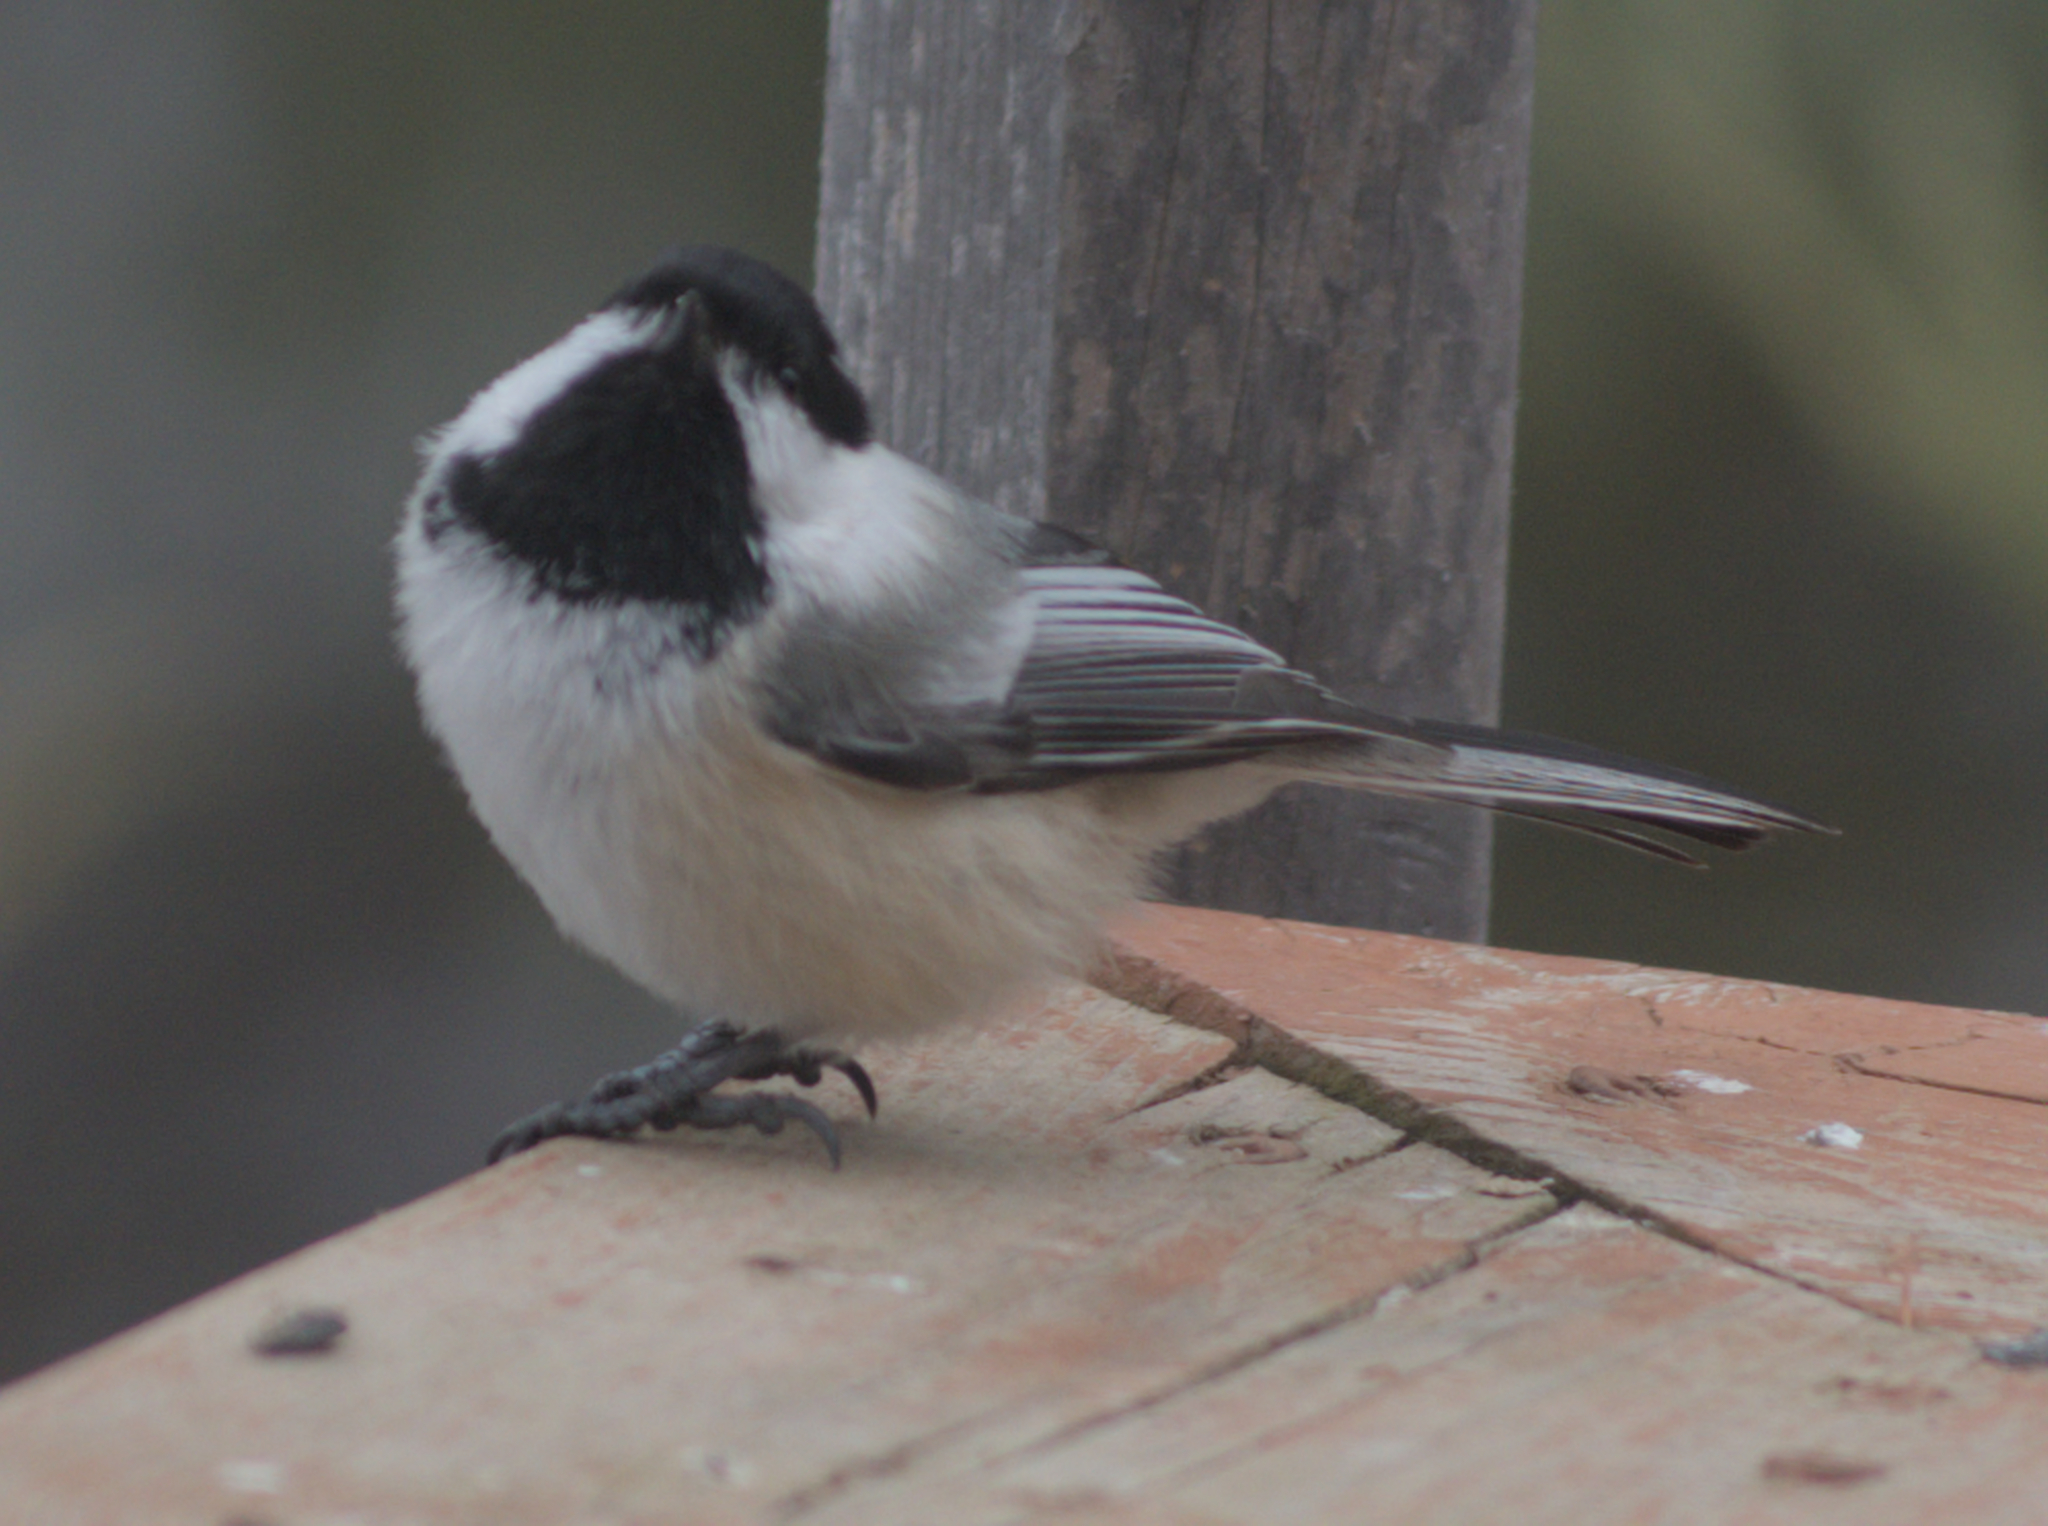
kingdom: Animalia
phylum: Chordata
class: Aves
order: Passeriformes
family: Paridae
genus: Poecile
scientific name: Poecile atricapillus
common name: Black-capped chickadee
